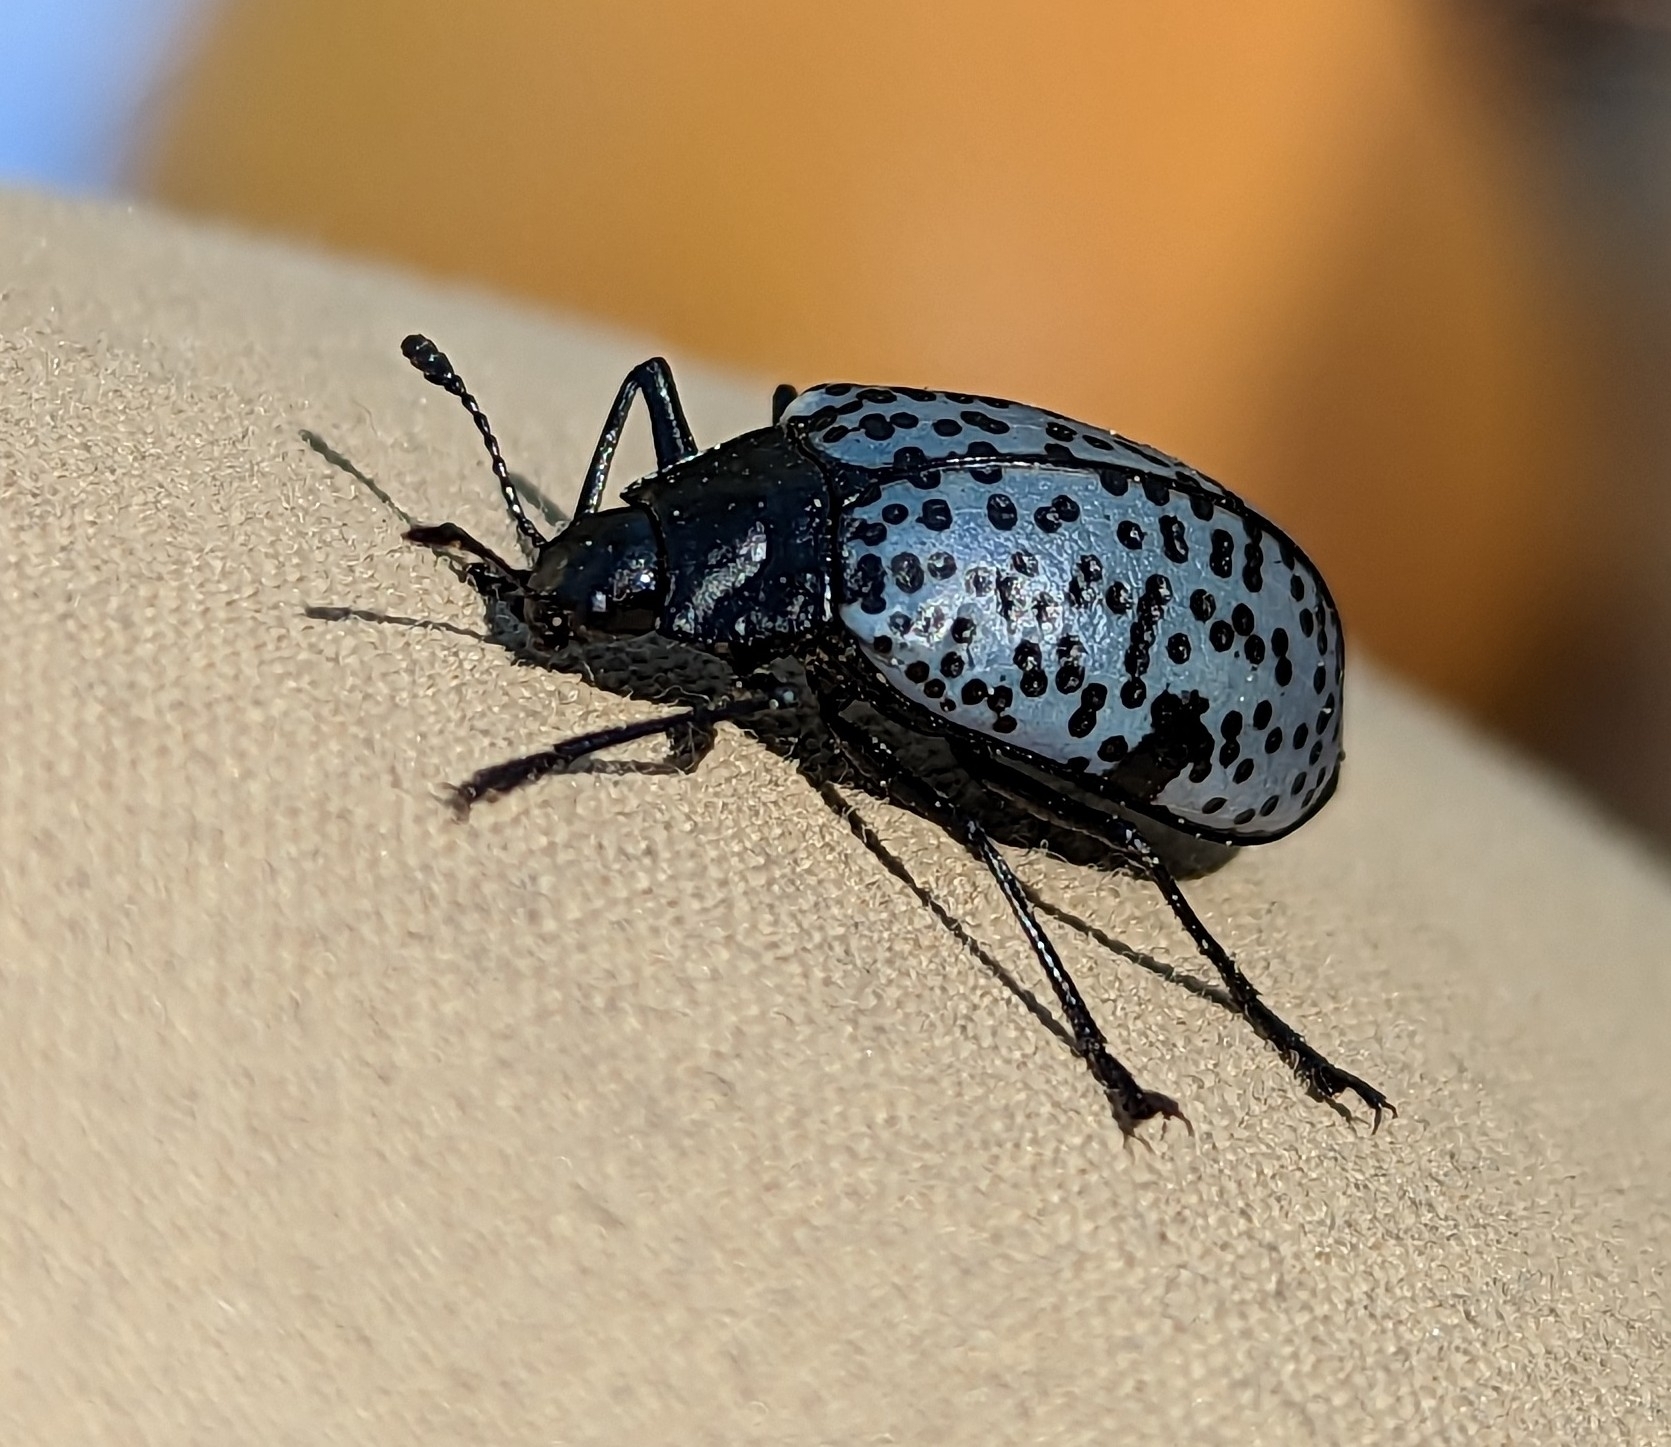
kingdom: Animalia
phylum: Arthropoda
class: Insecta
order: Coleoptera
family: Erotylidae
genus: Gibbifer
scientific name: Gibbifer californicus
